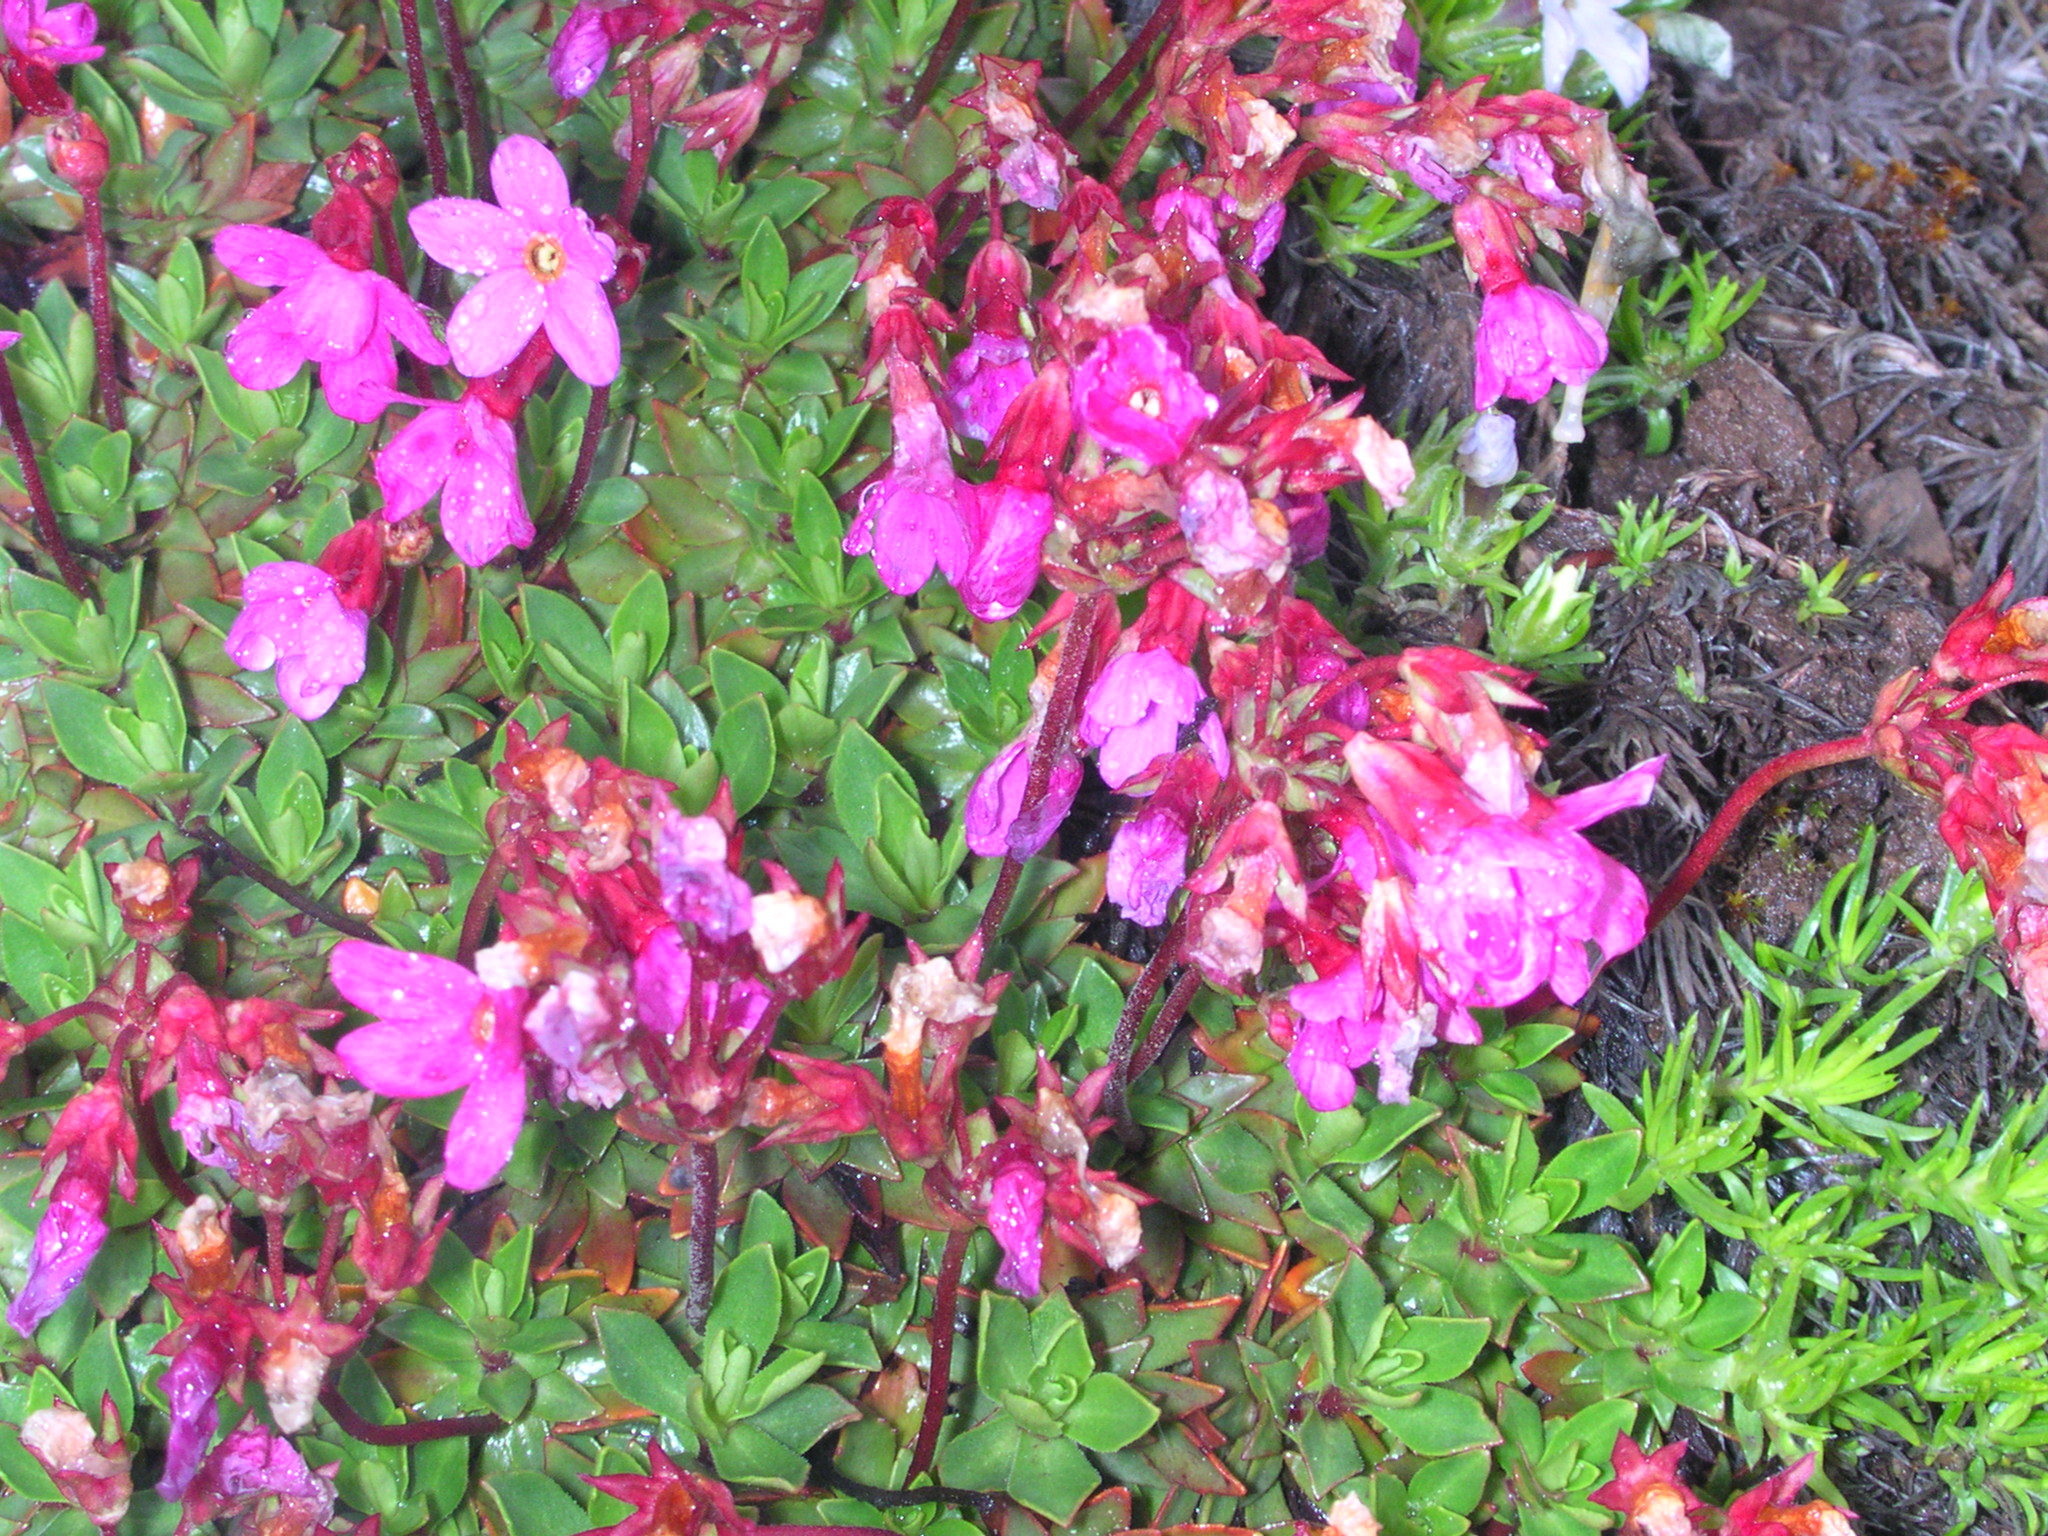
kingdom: Plantae
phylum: Tracheophyta
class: Magnoliopsida
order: Ericales
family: Primulaceae
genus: Androsace
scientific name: Androsace laevigata
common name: Cliff dwarf-primrose
